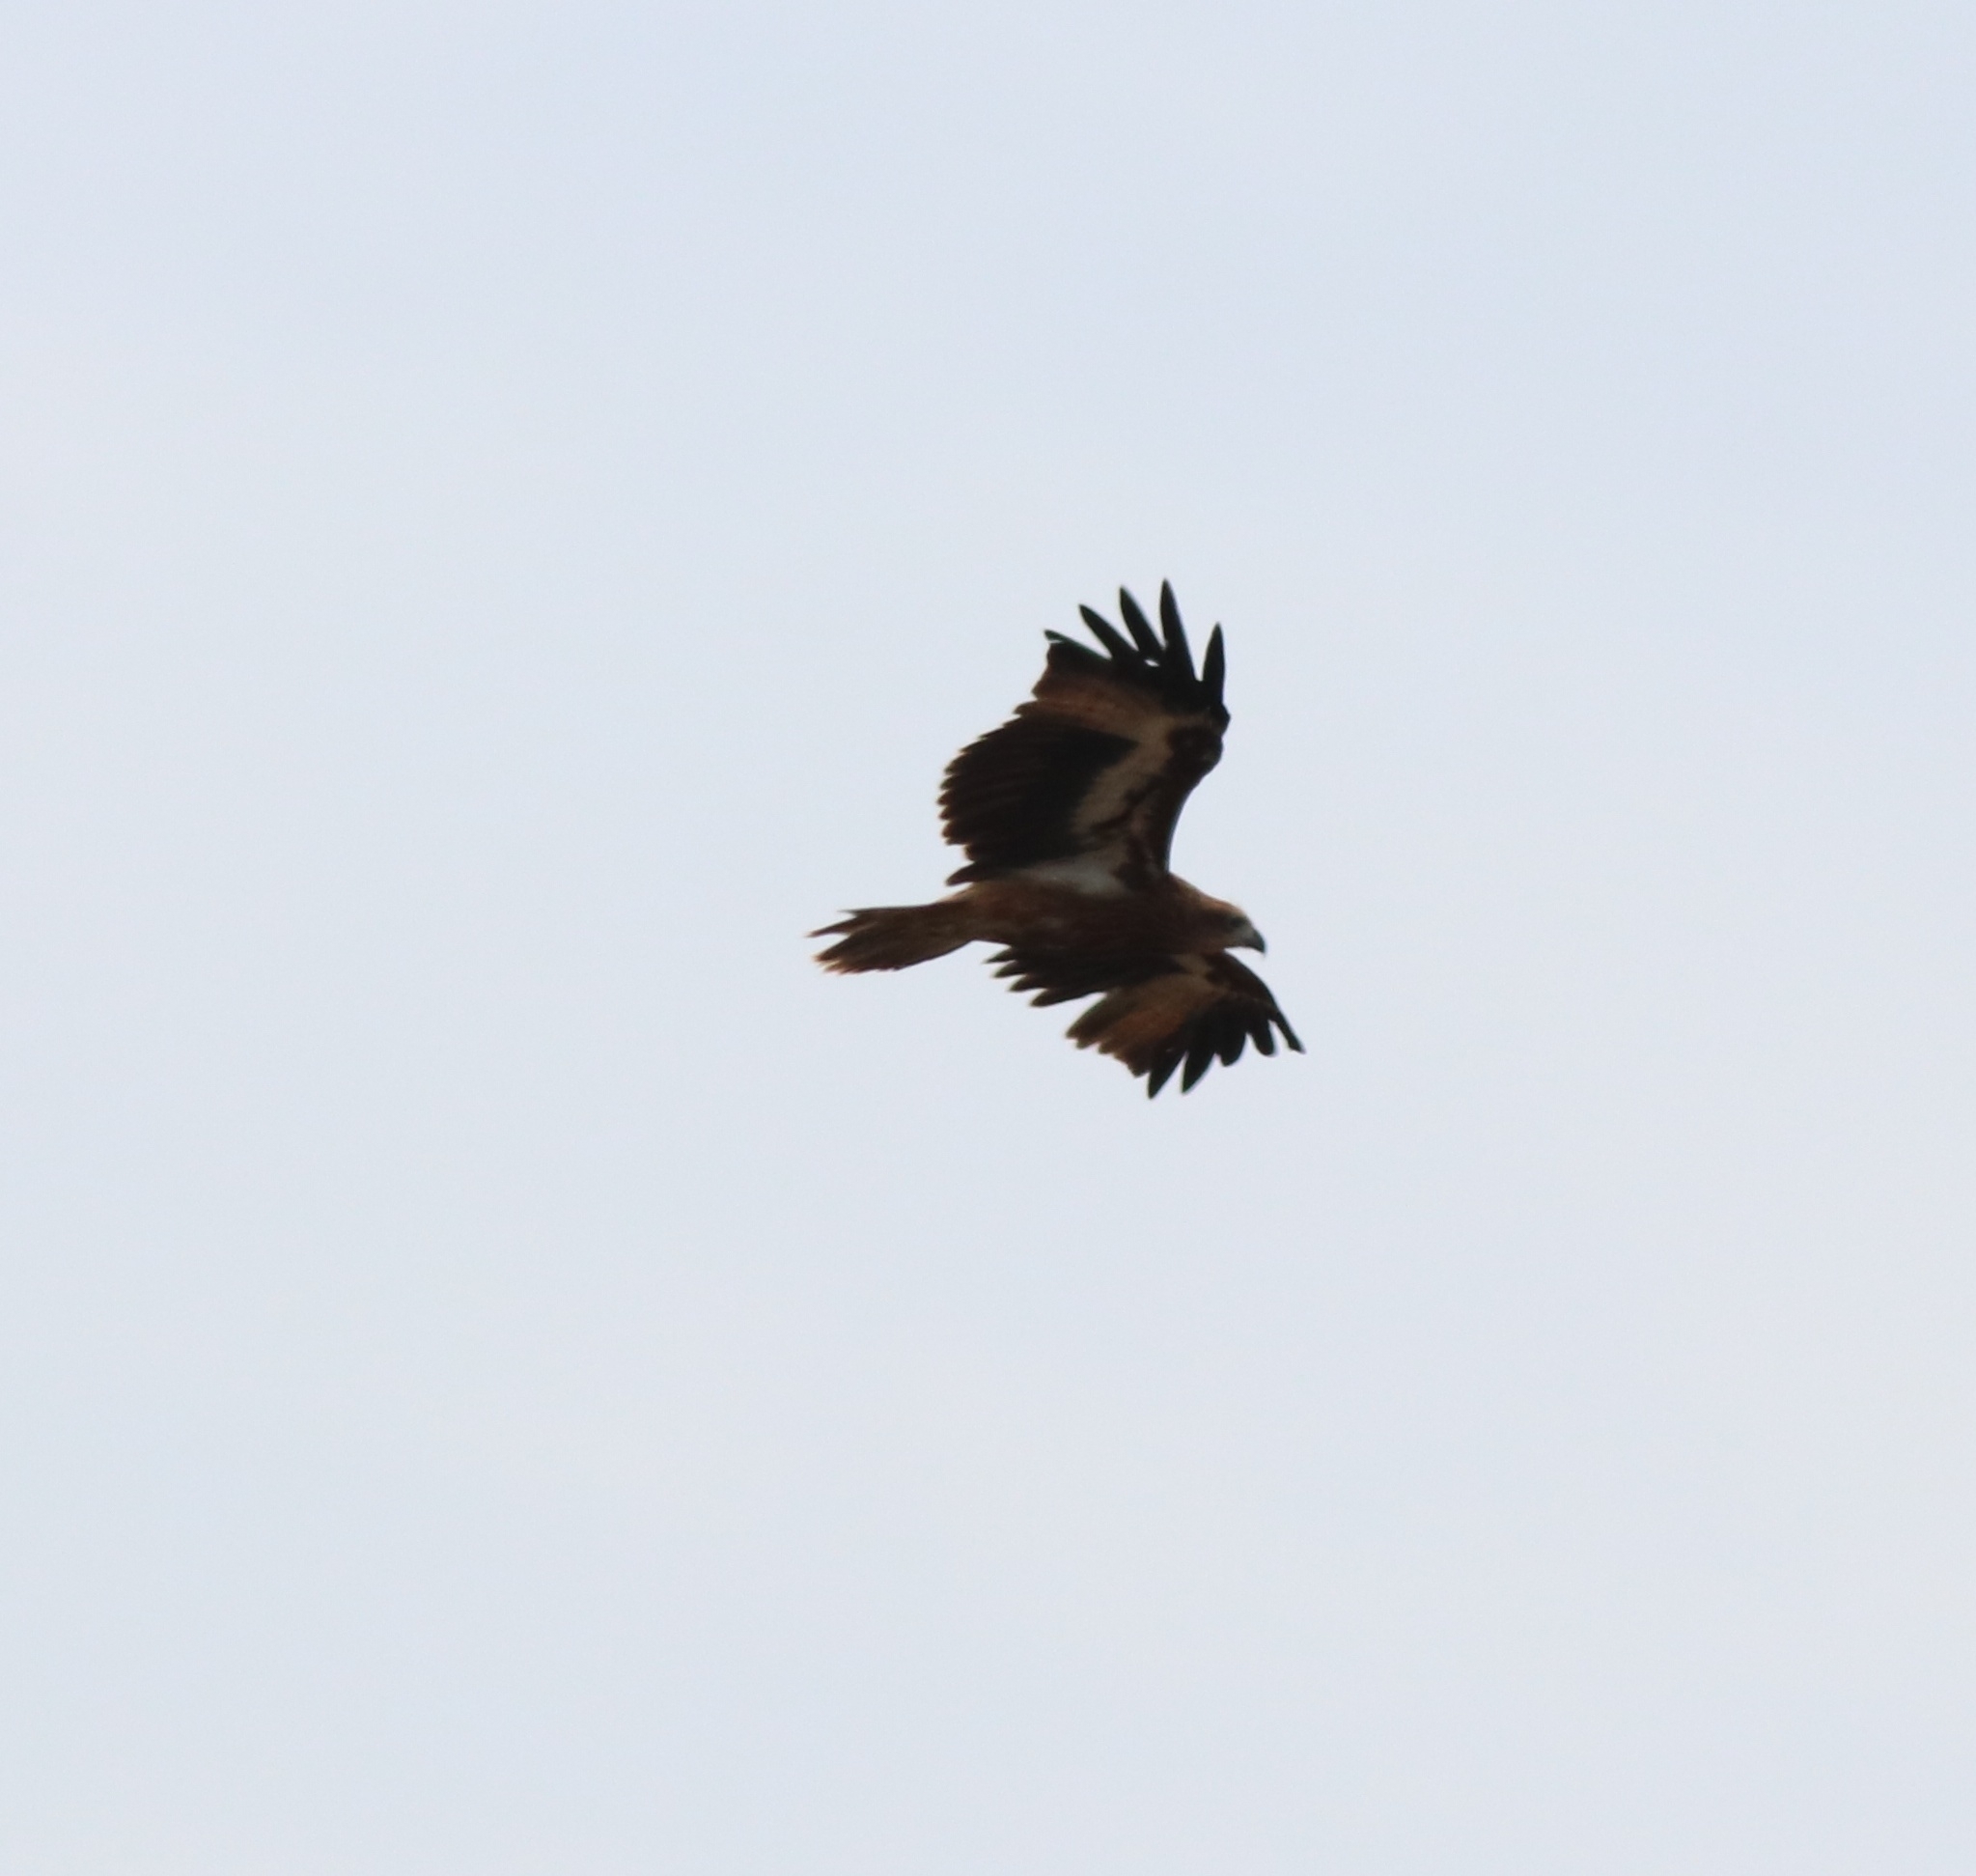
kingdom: Animalia
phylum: Chordata
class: Aves
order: Accipitriformes
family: Accipitridae
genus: Haliastur
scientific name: Haliastur indus
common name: Brahminy kite
